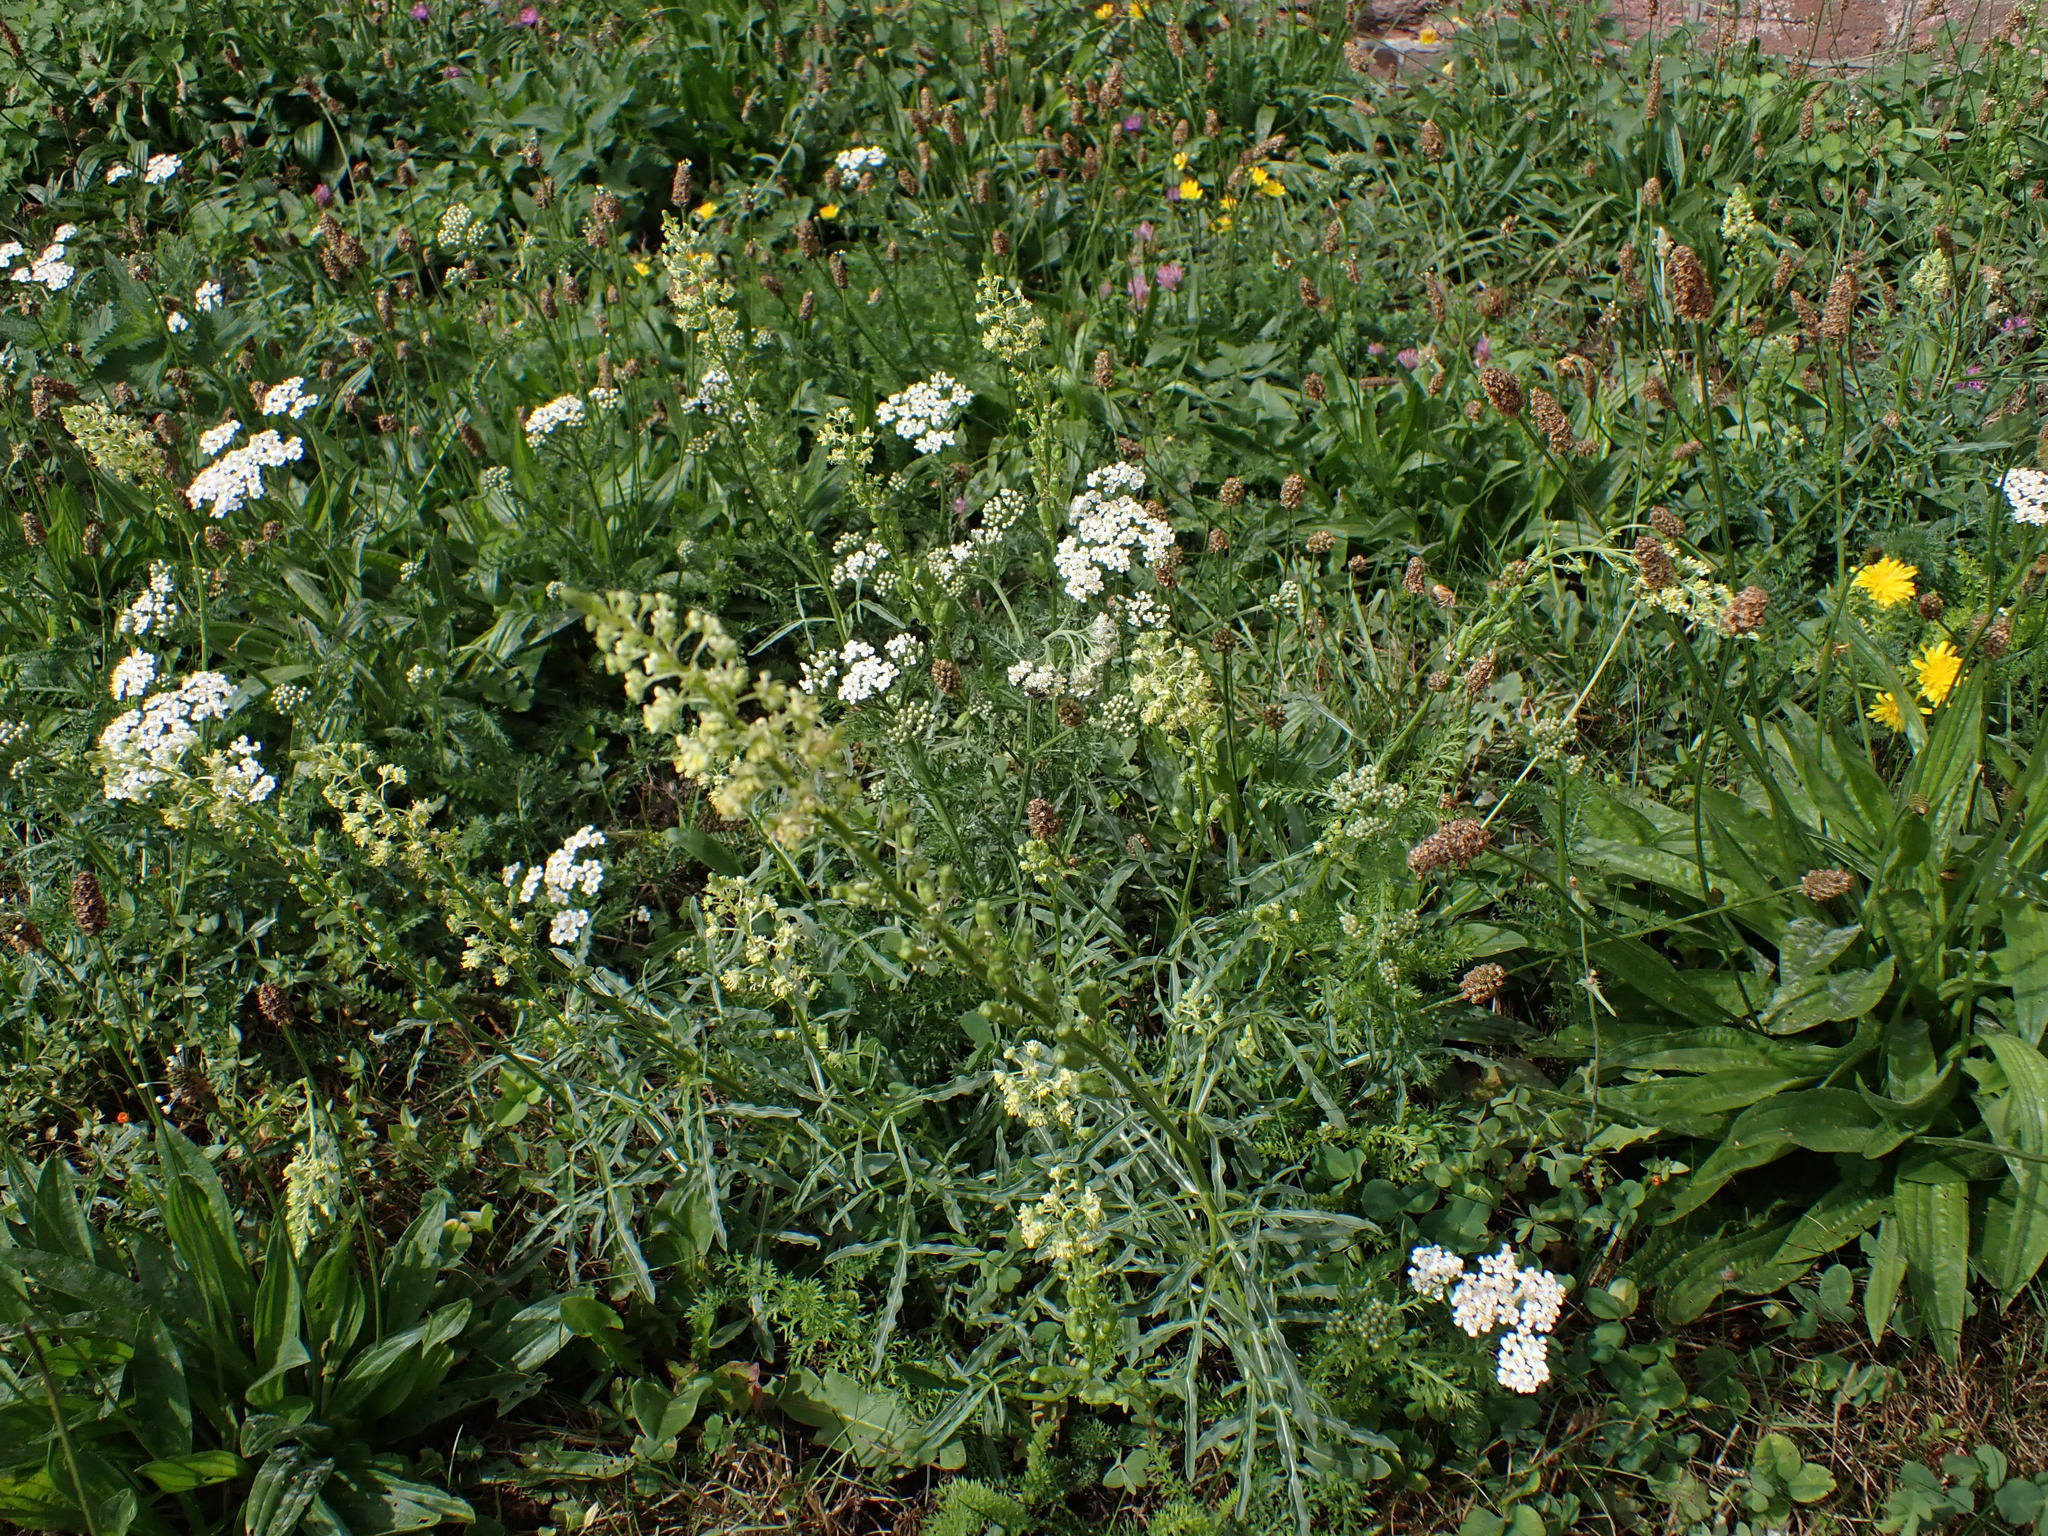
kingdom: Plantae
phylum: Tracheophyta
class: Magnoliopsida
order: Brassicales
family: Resedaceae
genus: Reseda
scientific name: Reseda lutea
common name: Wild mignonette
